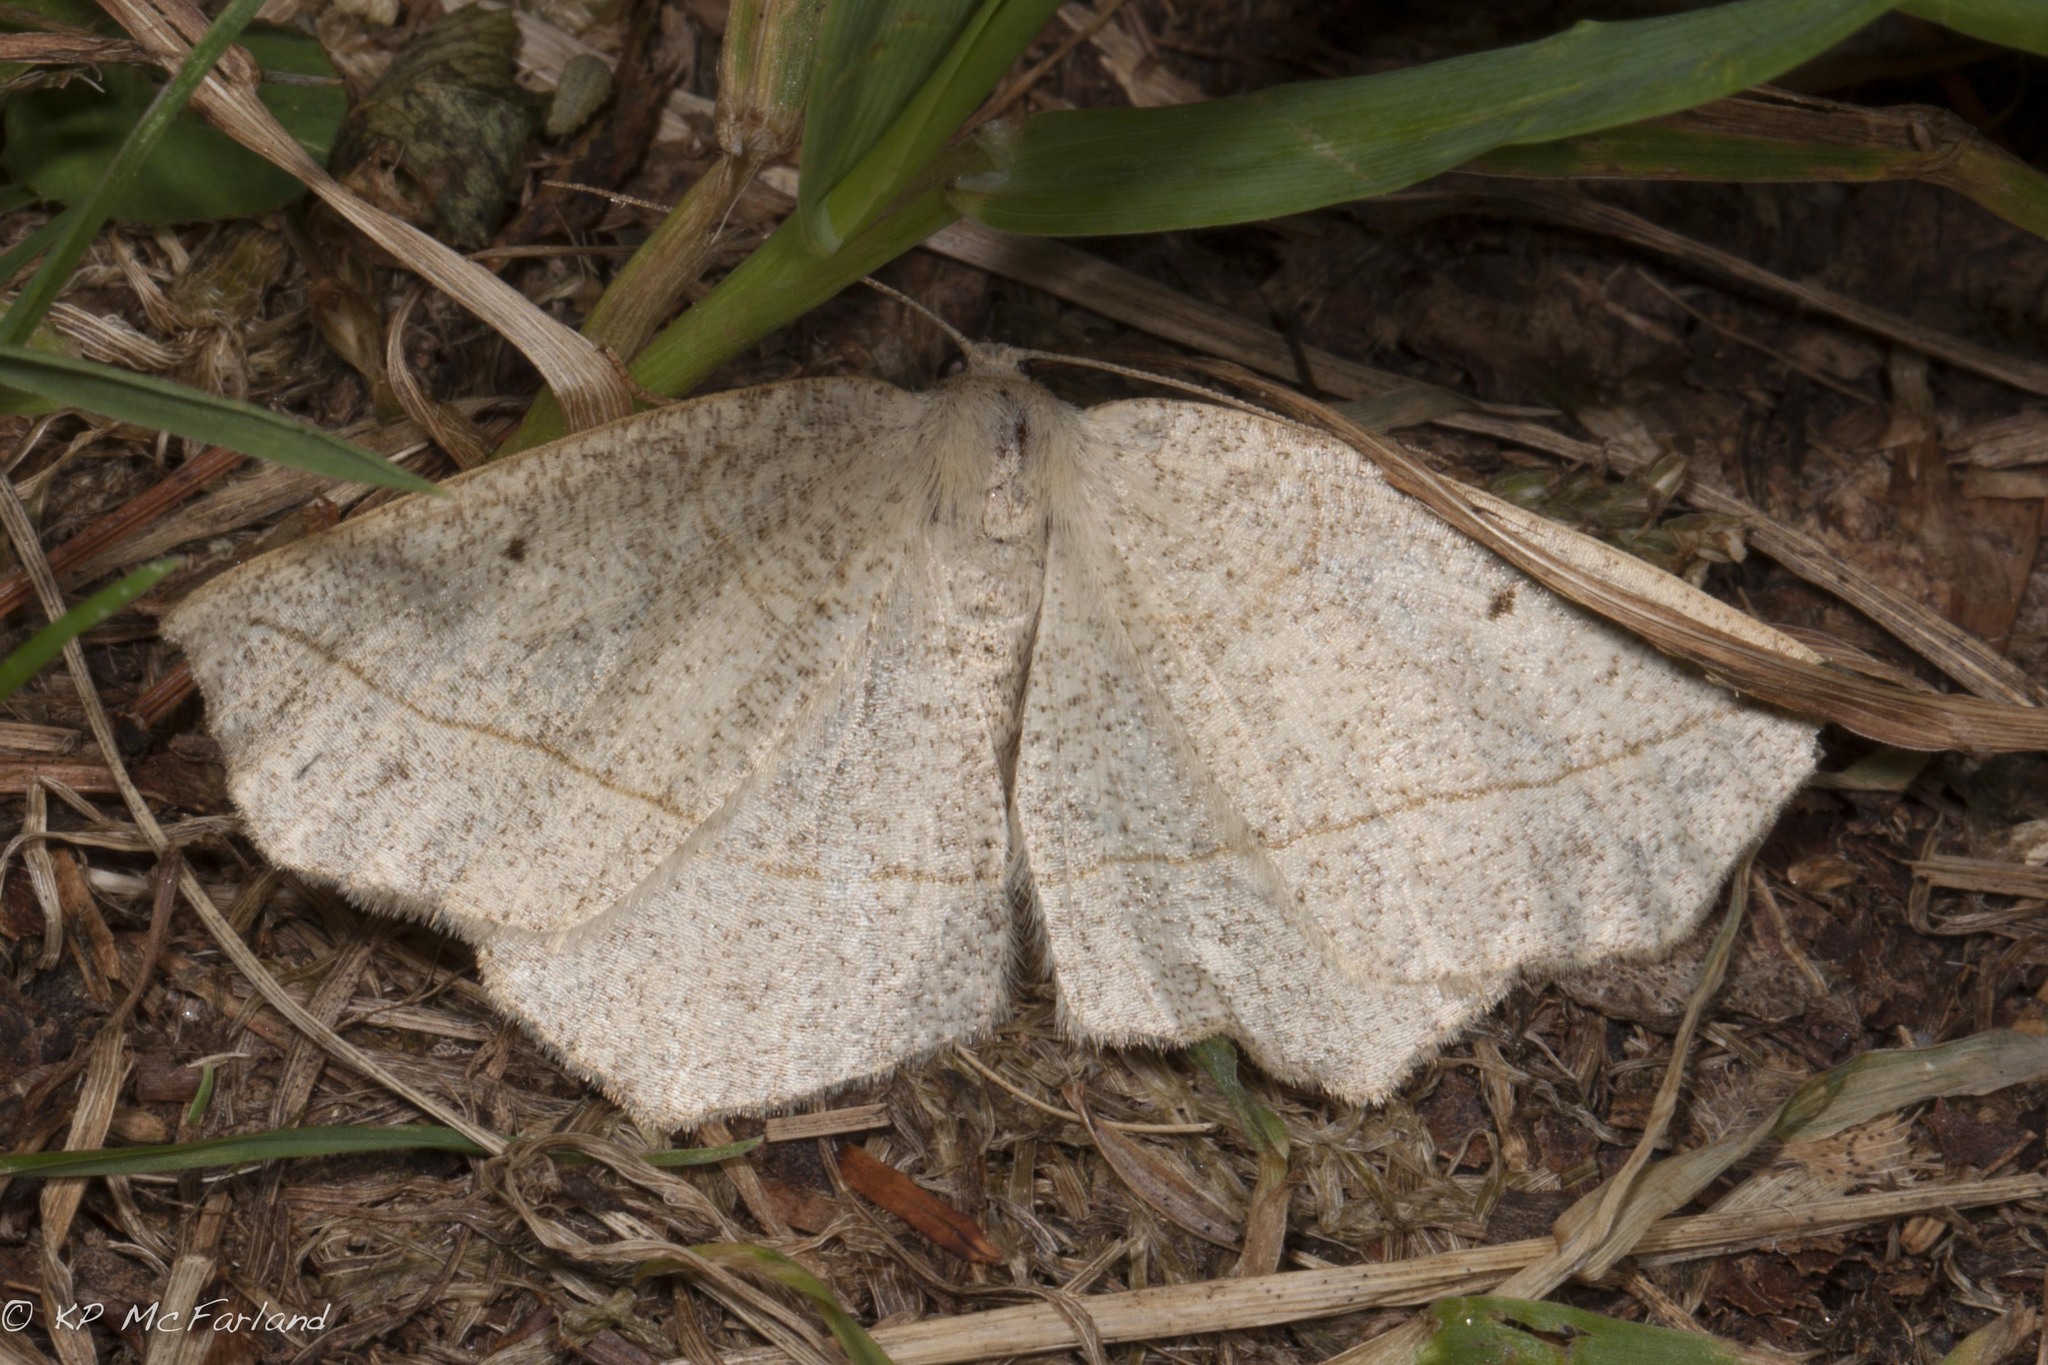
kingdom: Animalia
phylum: Arthropoda
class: Insecta
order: Lepidoptera
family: Geometridae
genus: Eusarca
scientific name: Eusarca confusaria
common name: Confused eusarca
